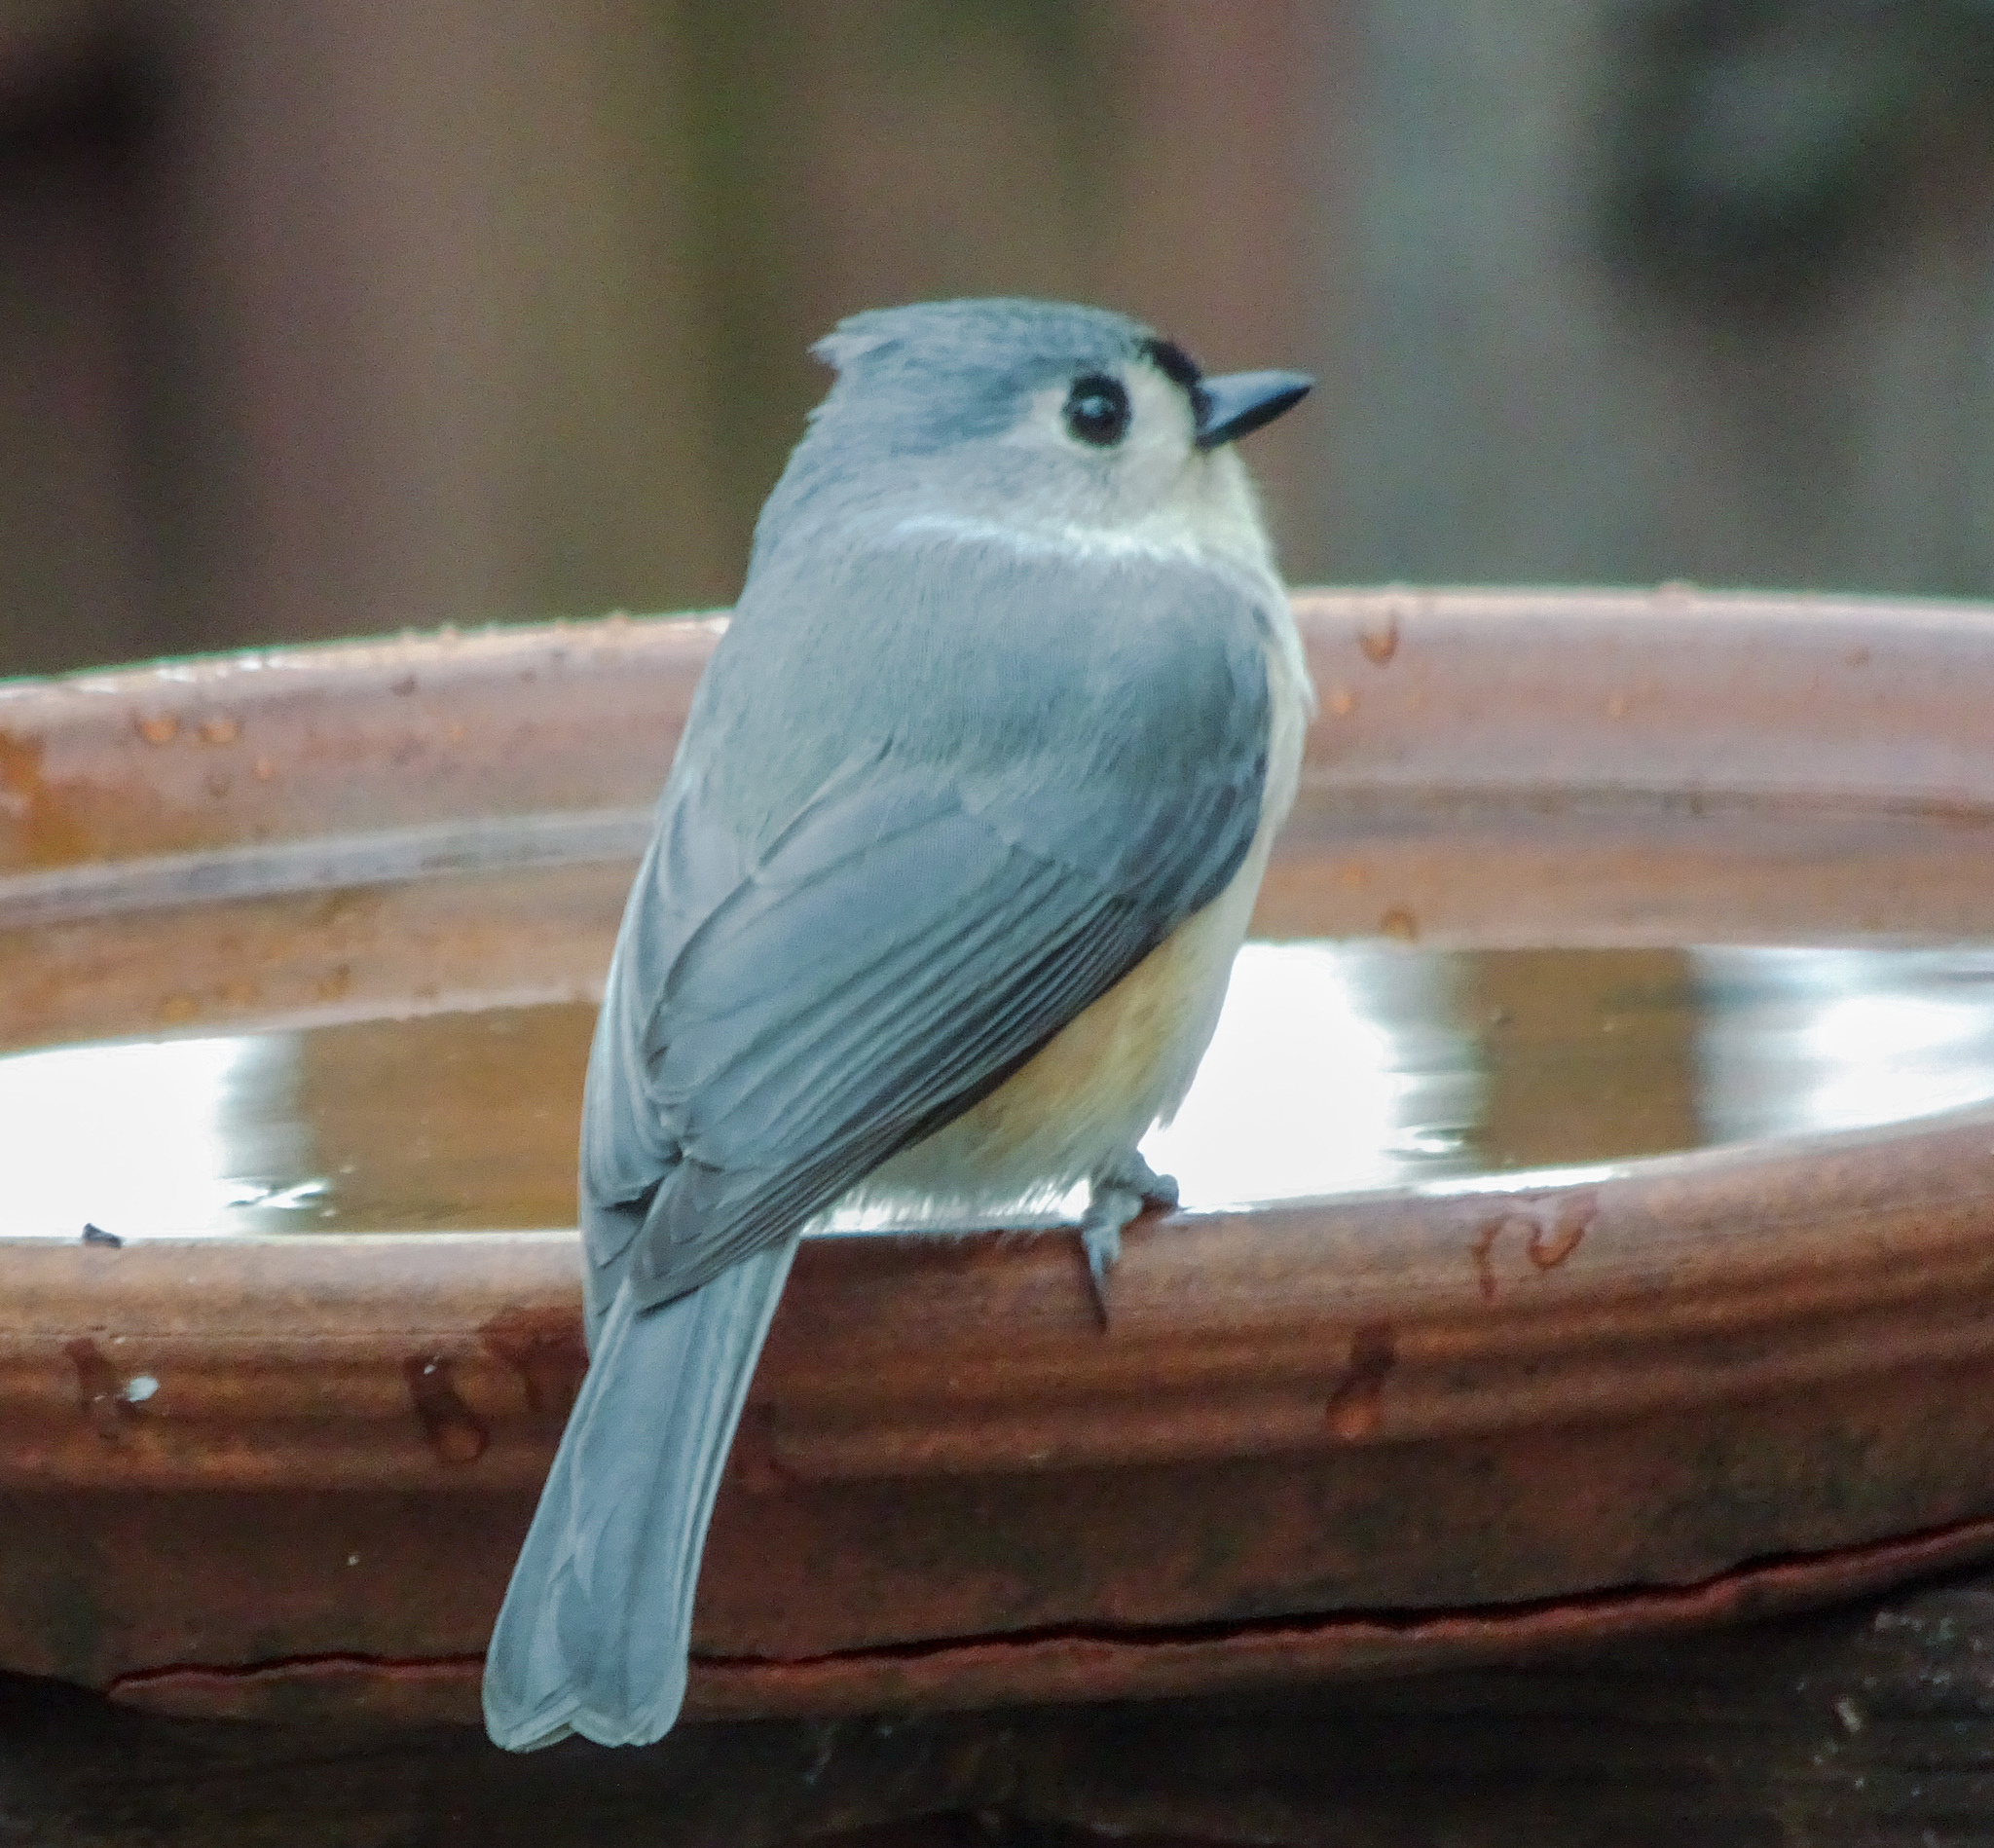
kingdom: Animalia
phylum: Chordata
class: Aves
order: Passeriformes
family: Paridae
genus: Baeolophus
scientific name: Baeolophus bicolor
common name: Tufted titmouse
